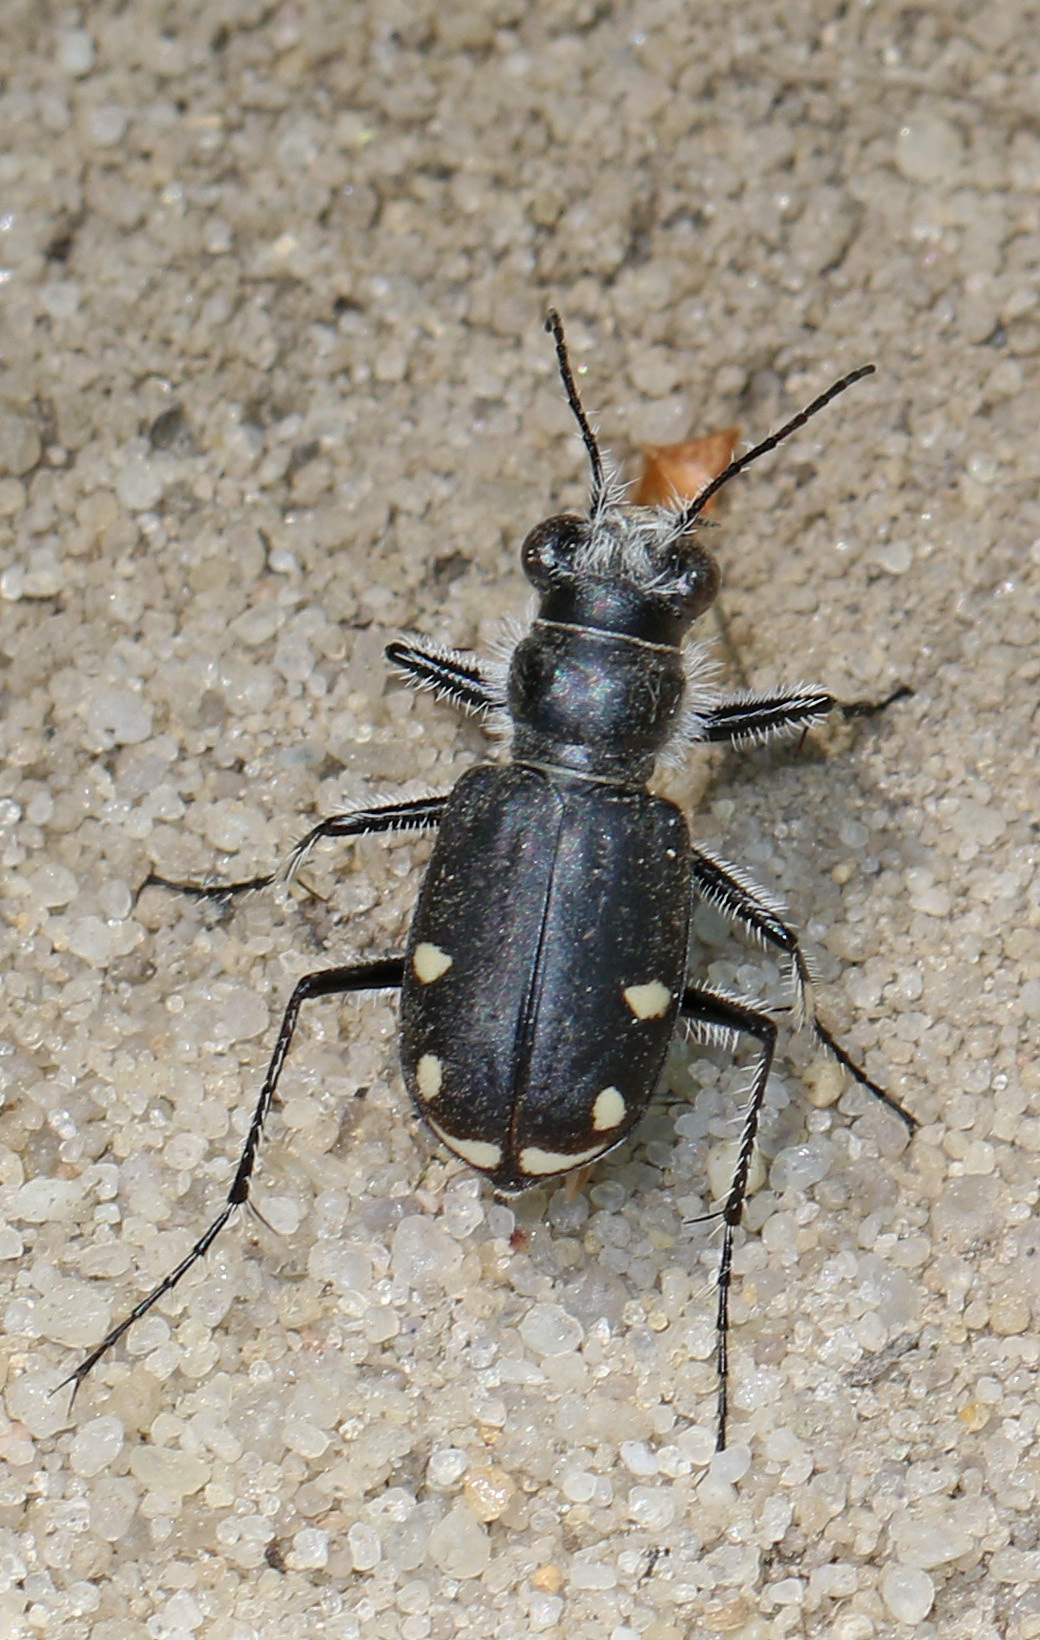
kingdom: Animalia
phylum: Arthropoda
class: Insecta
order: Coleoptera
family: Carabidae
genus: Cicindela
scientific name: Cicindela scutellaris
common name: Festive tiger beetle
